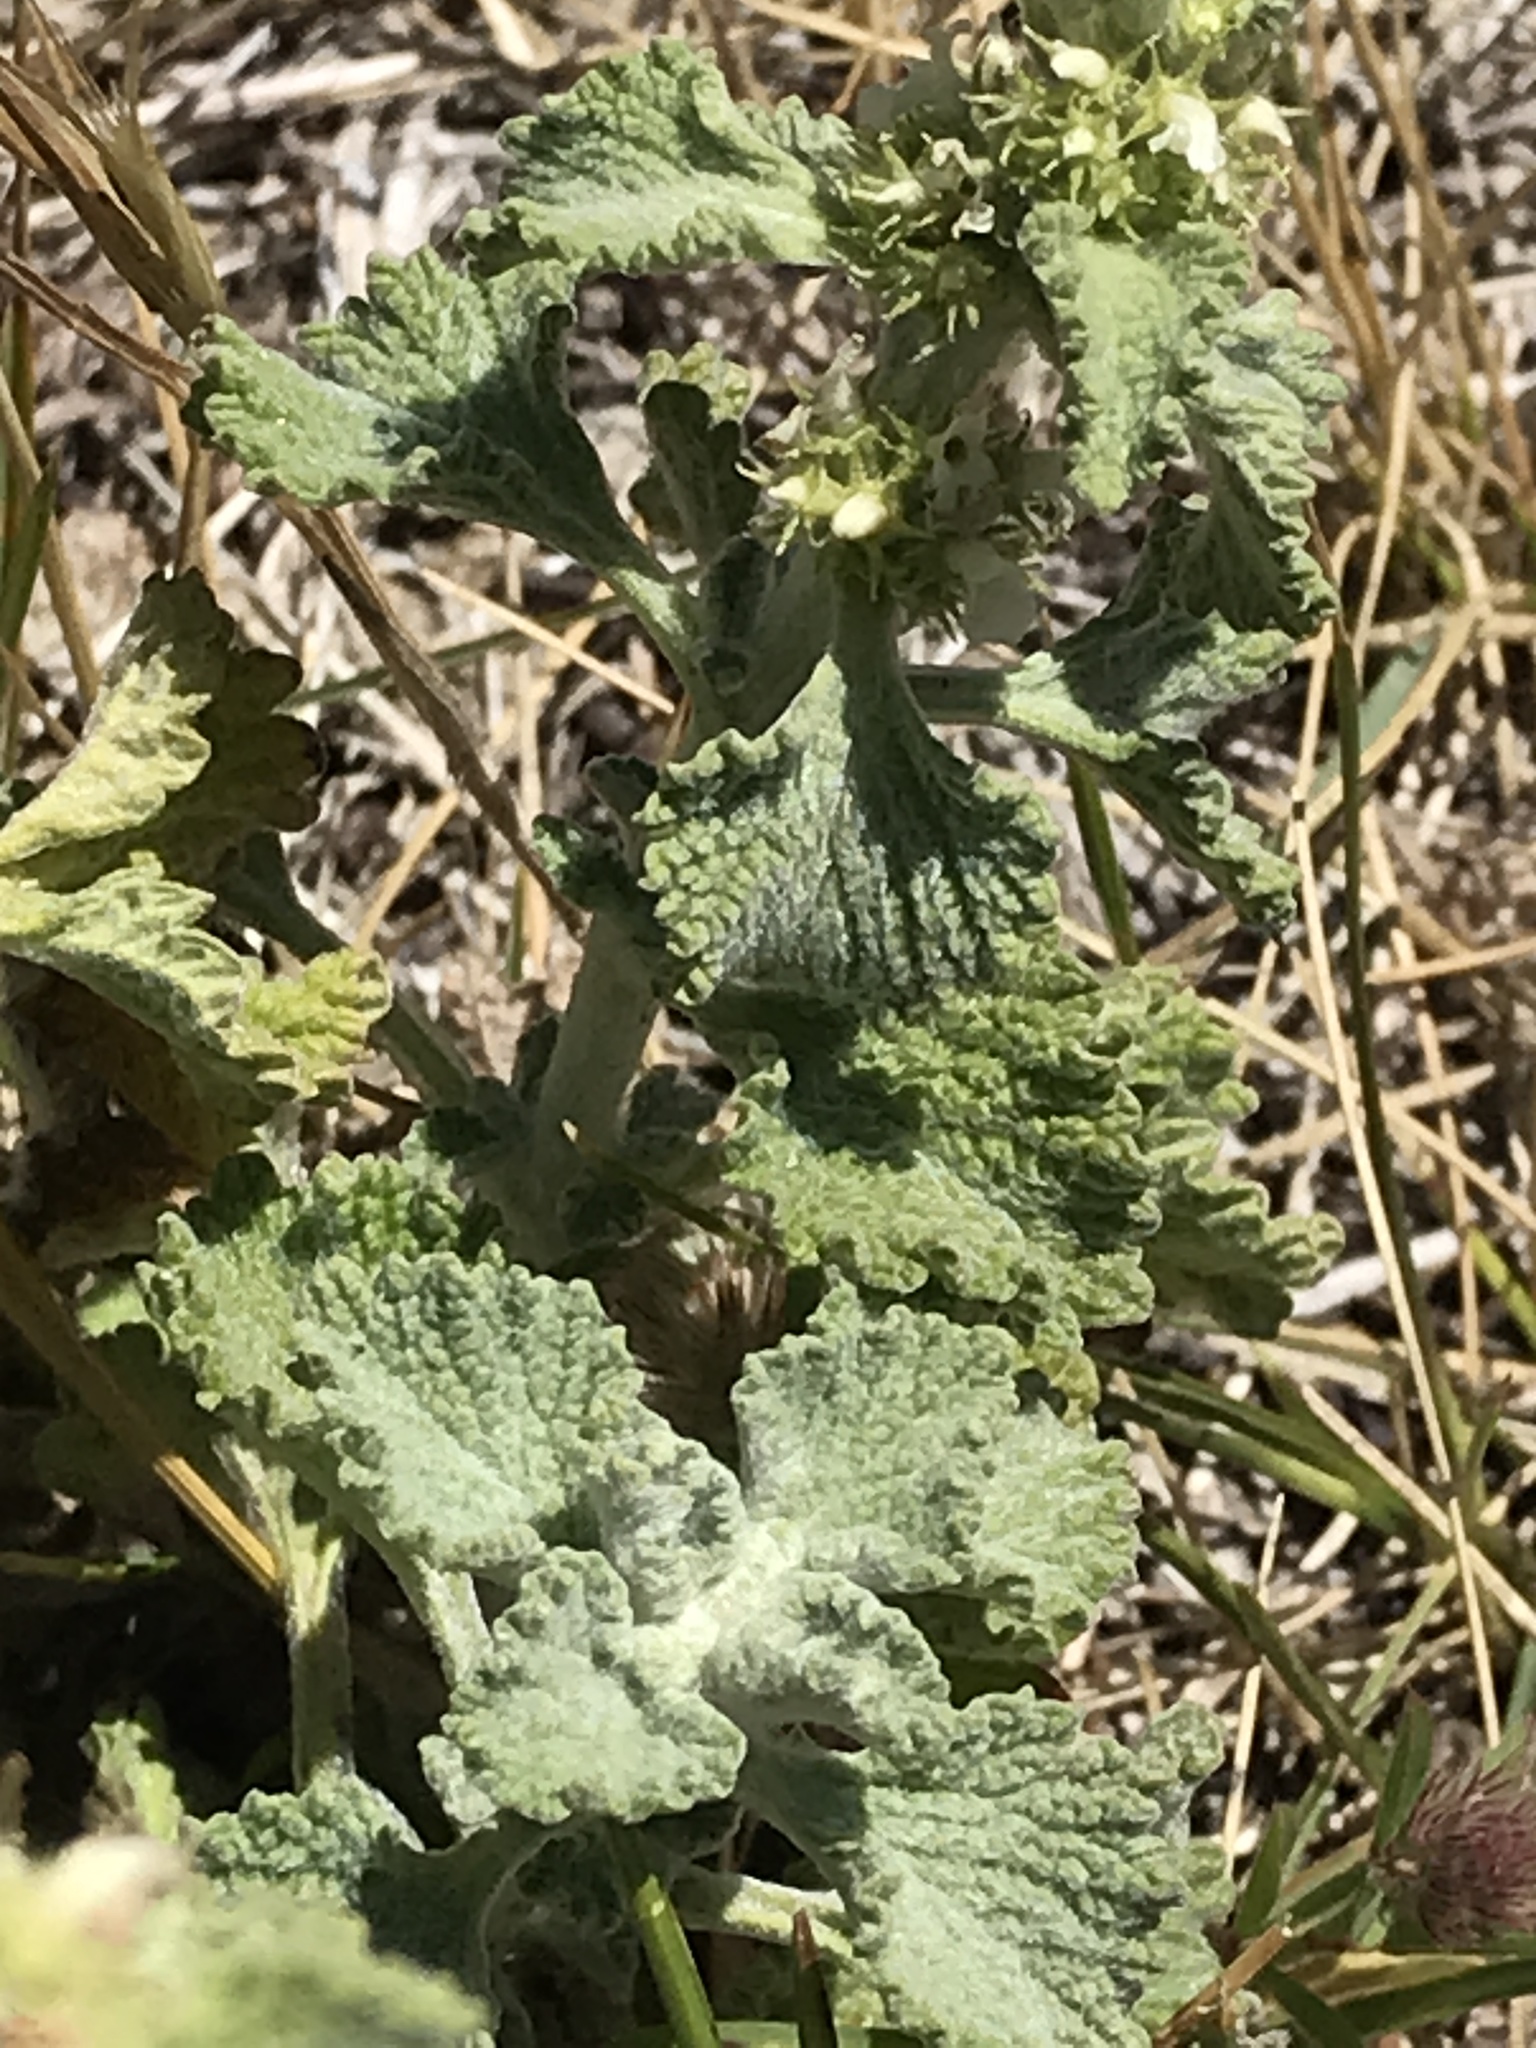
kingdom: Plantae
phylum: Tracheophyta
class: Magnoliopsida
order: Lamiales
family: Lamiaceae
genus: Marrubium
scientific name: Marrubium vulgare
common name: Horehound
